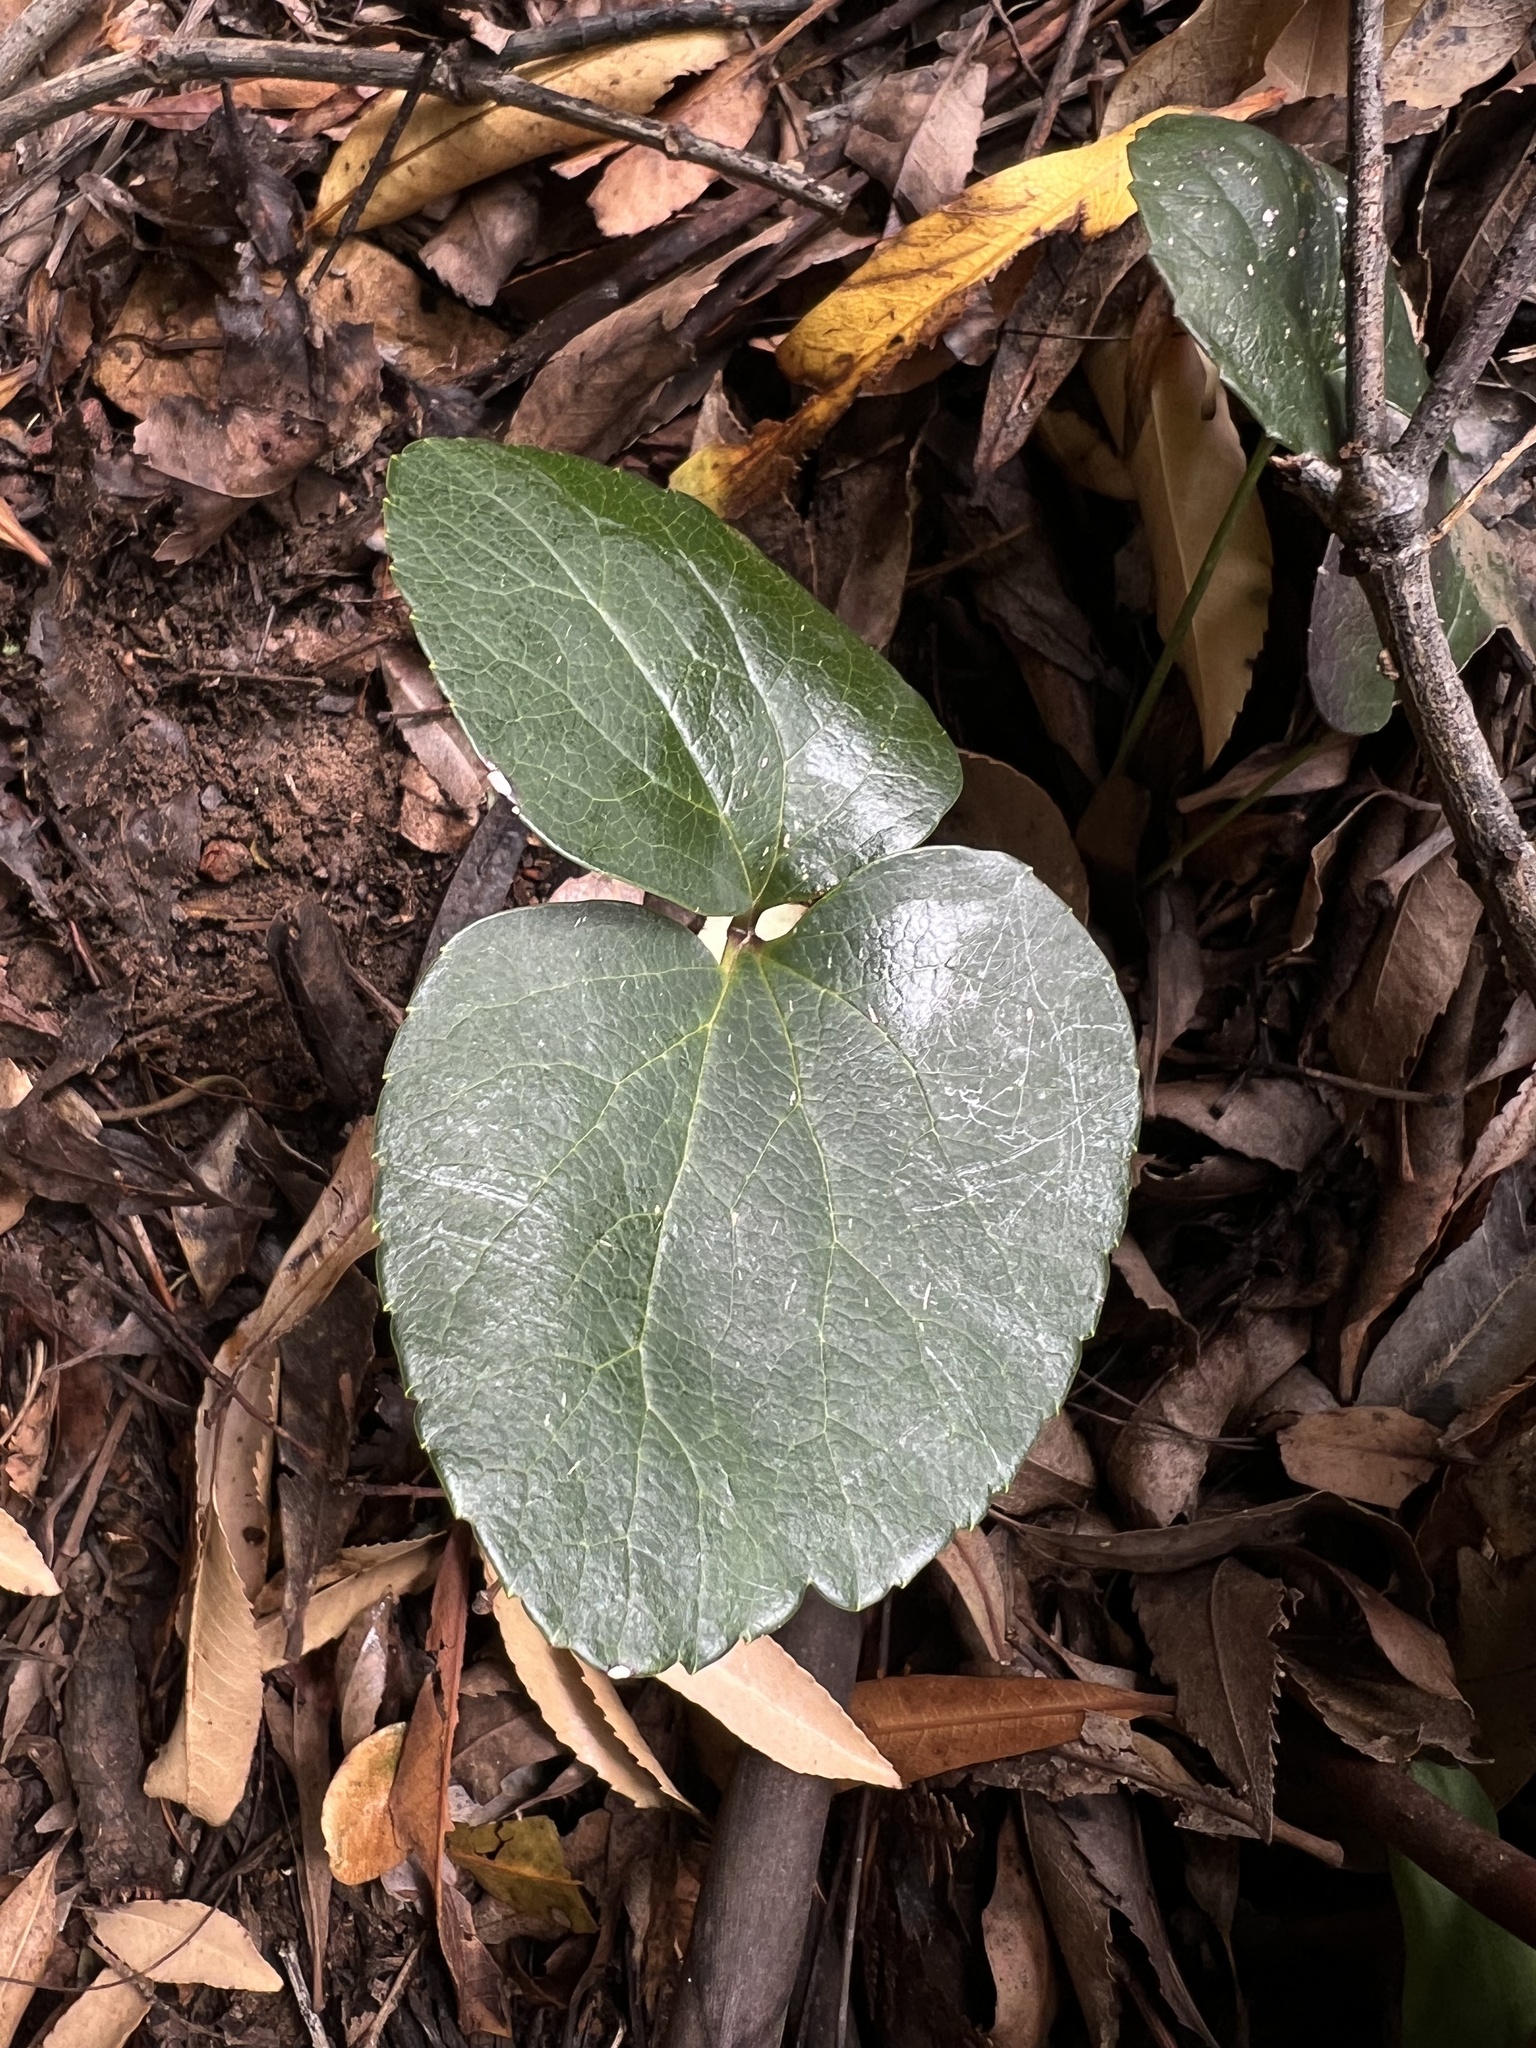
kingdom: Plantae
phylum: Tracheophyta
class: Magnoliopsida
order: Ranunculales
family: Ranunculaceae
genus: Knowltonia
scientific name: Knowltonia vesicatoria
